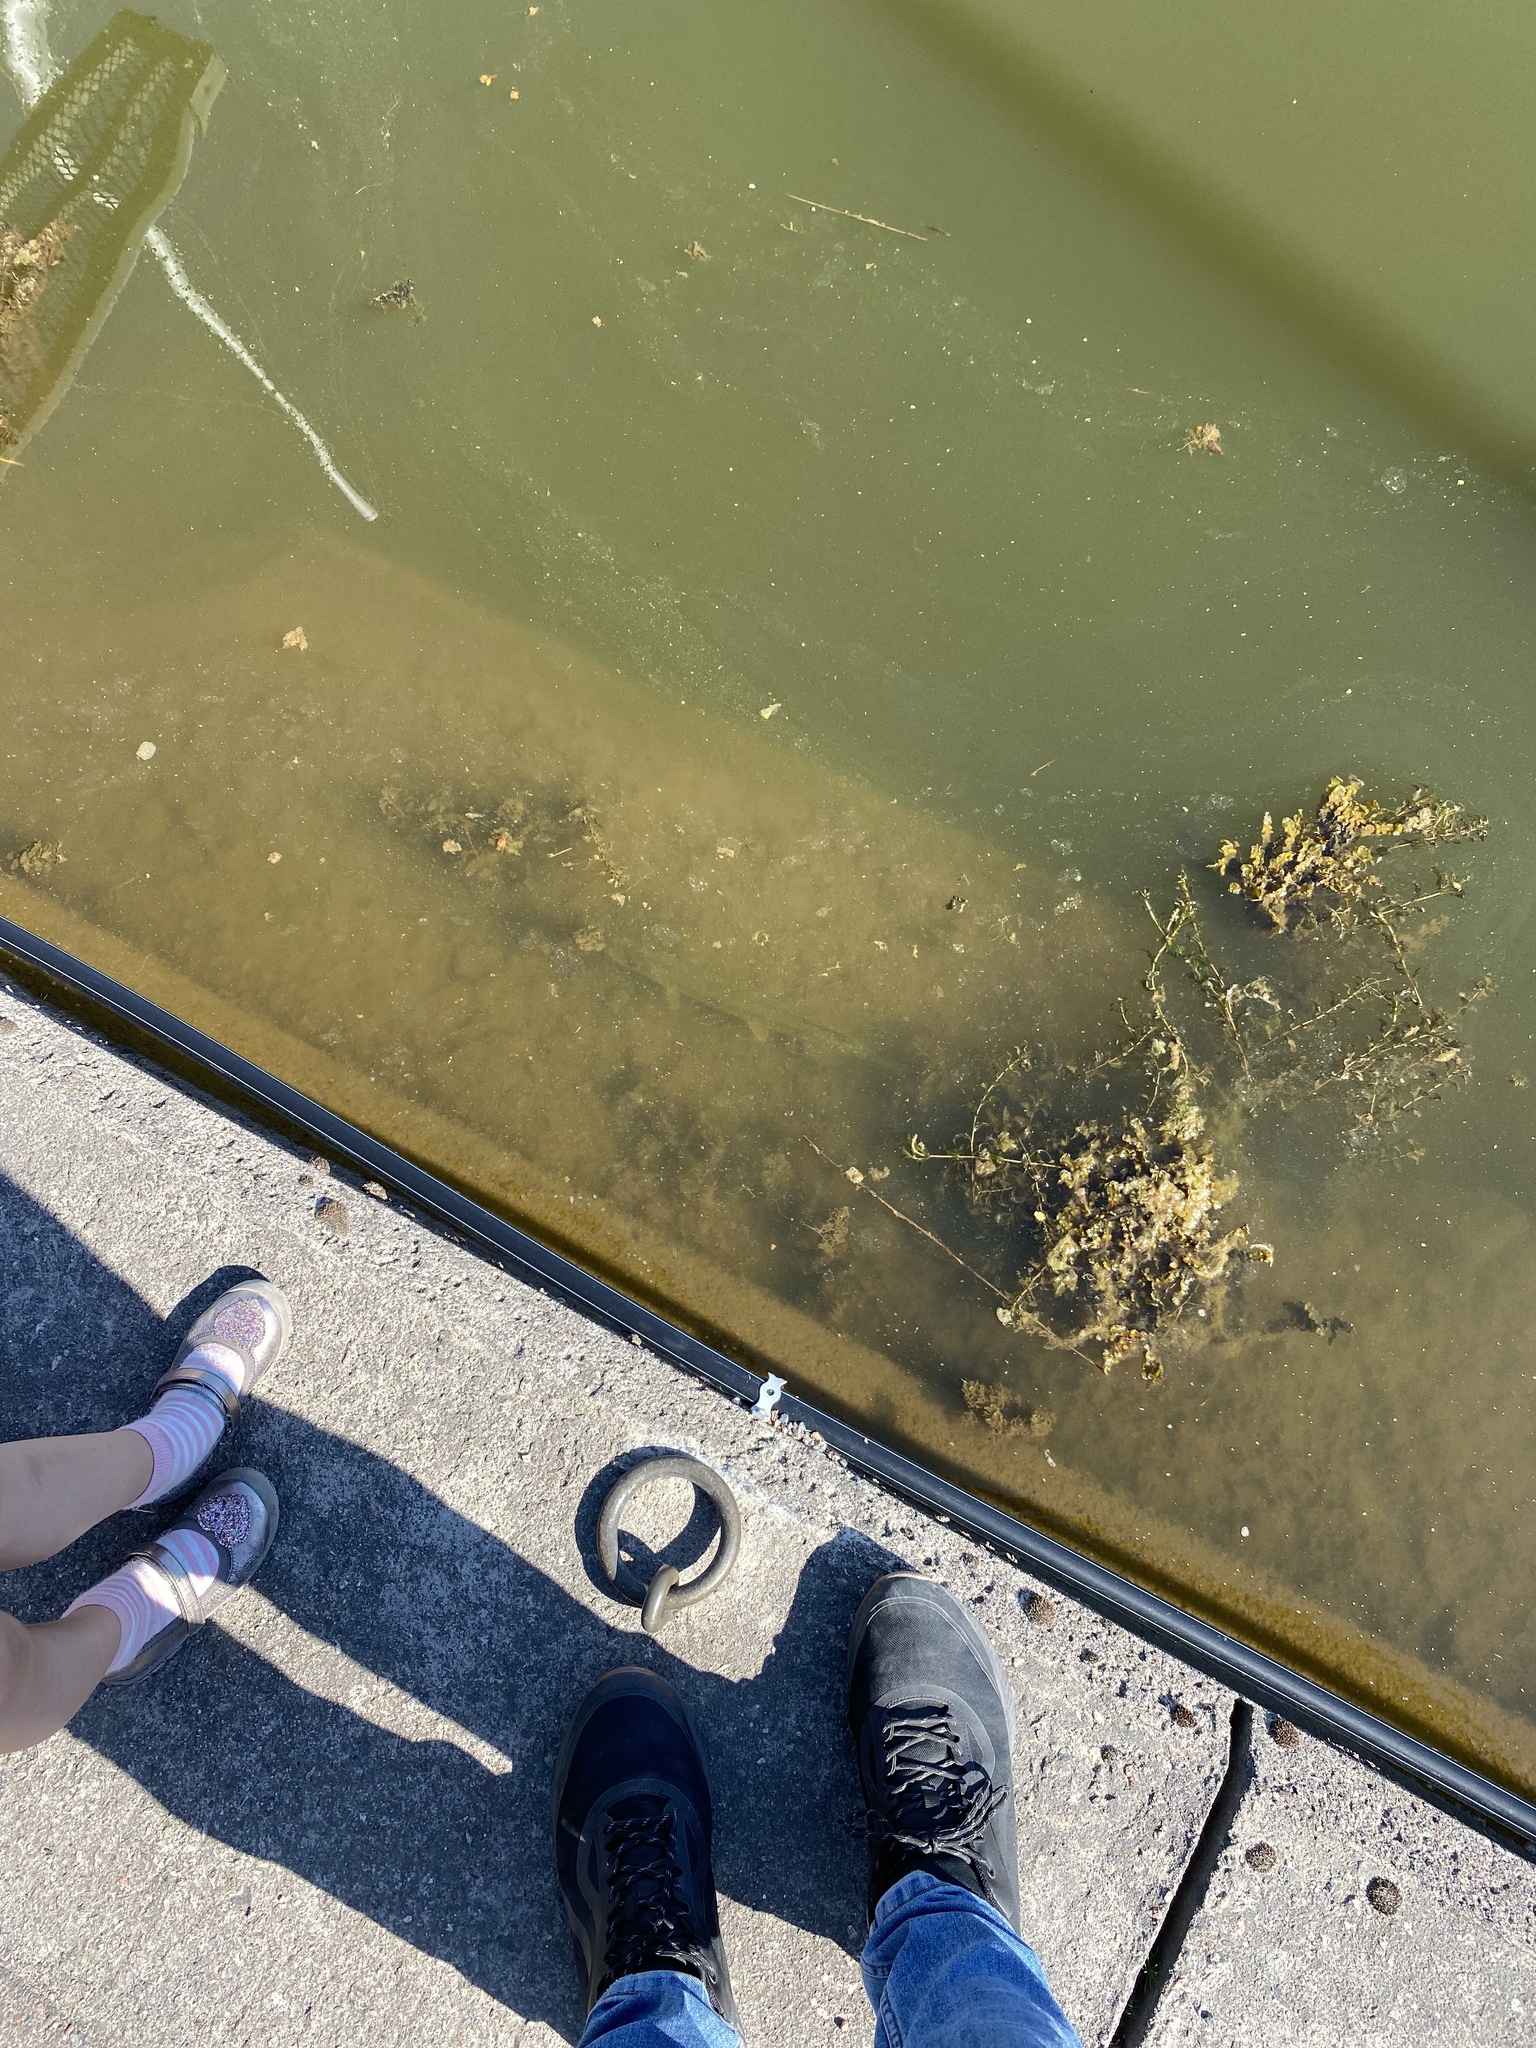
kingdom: Animalia
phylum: Chordata
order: Esociformes
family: Esocidae
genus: Esox
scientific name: Esox lucius
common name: Northern pike
